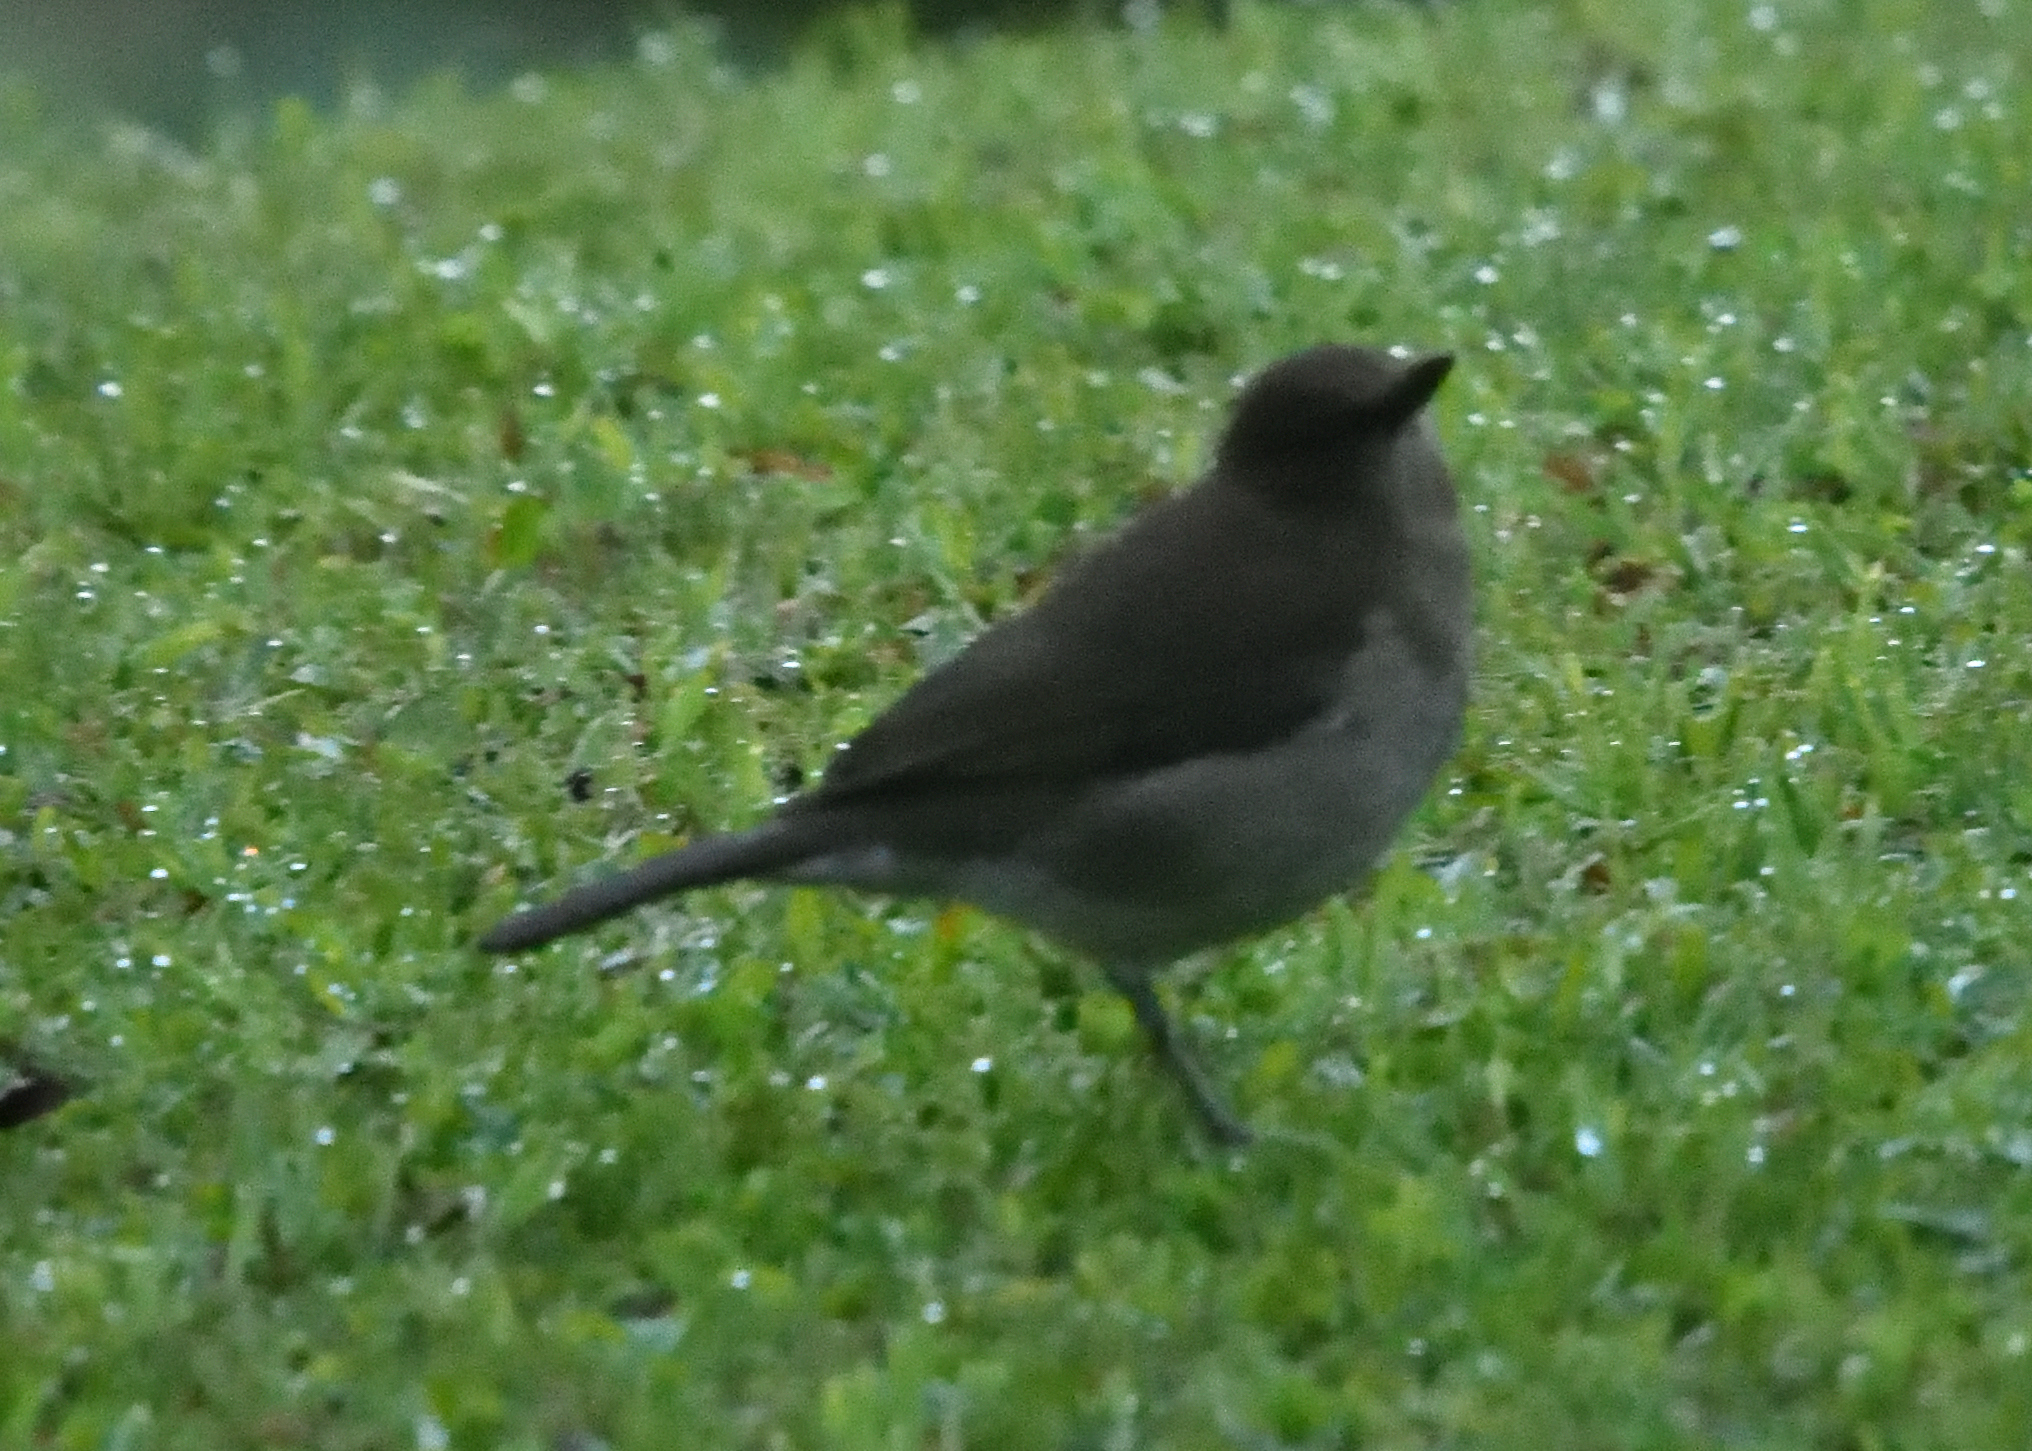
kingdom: Animalia
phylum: Chordata
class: Aves
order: Passeriformes
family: Turdidae
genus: Turdus
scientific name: Turdus ignobilis
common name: Black-billed thrush
